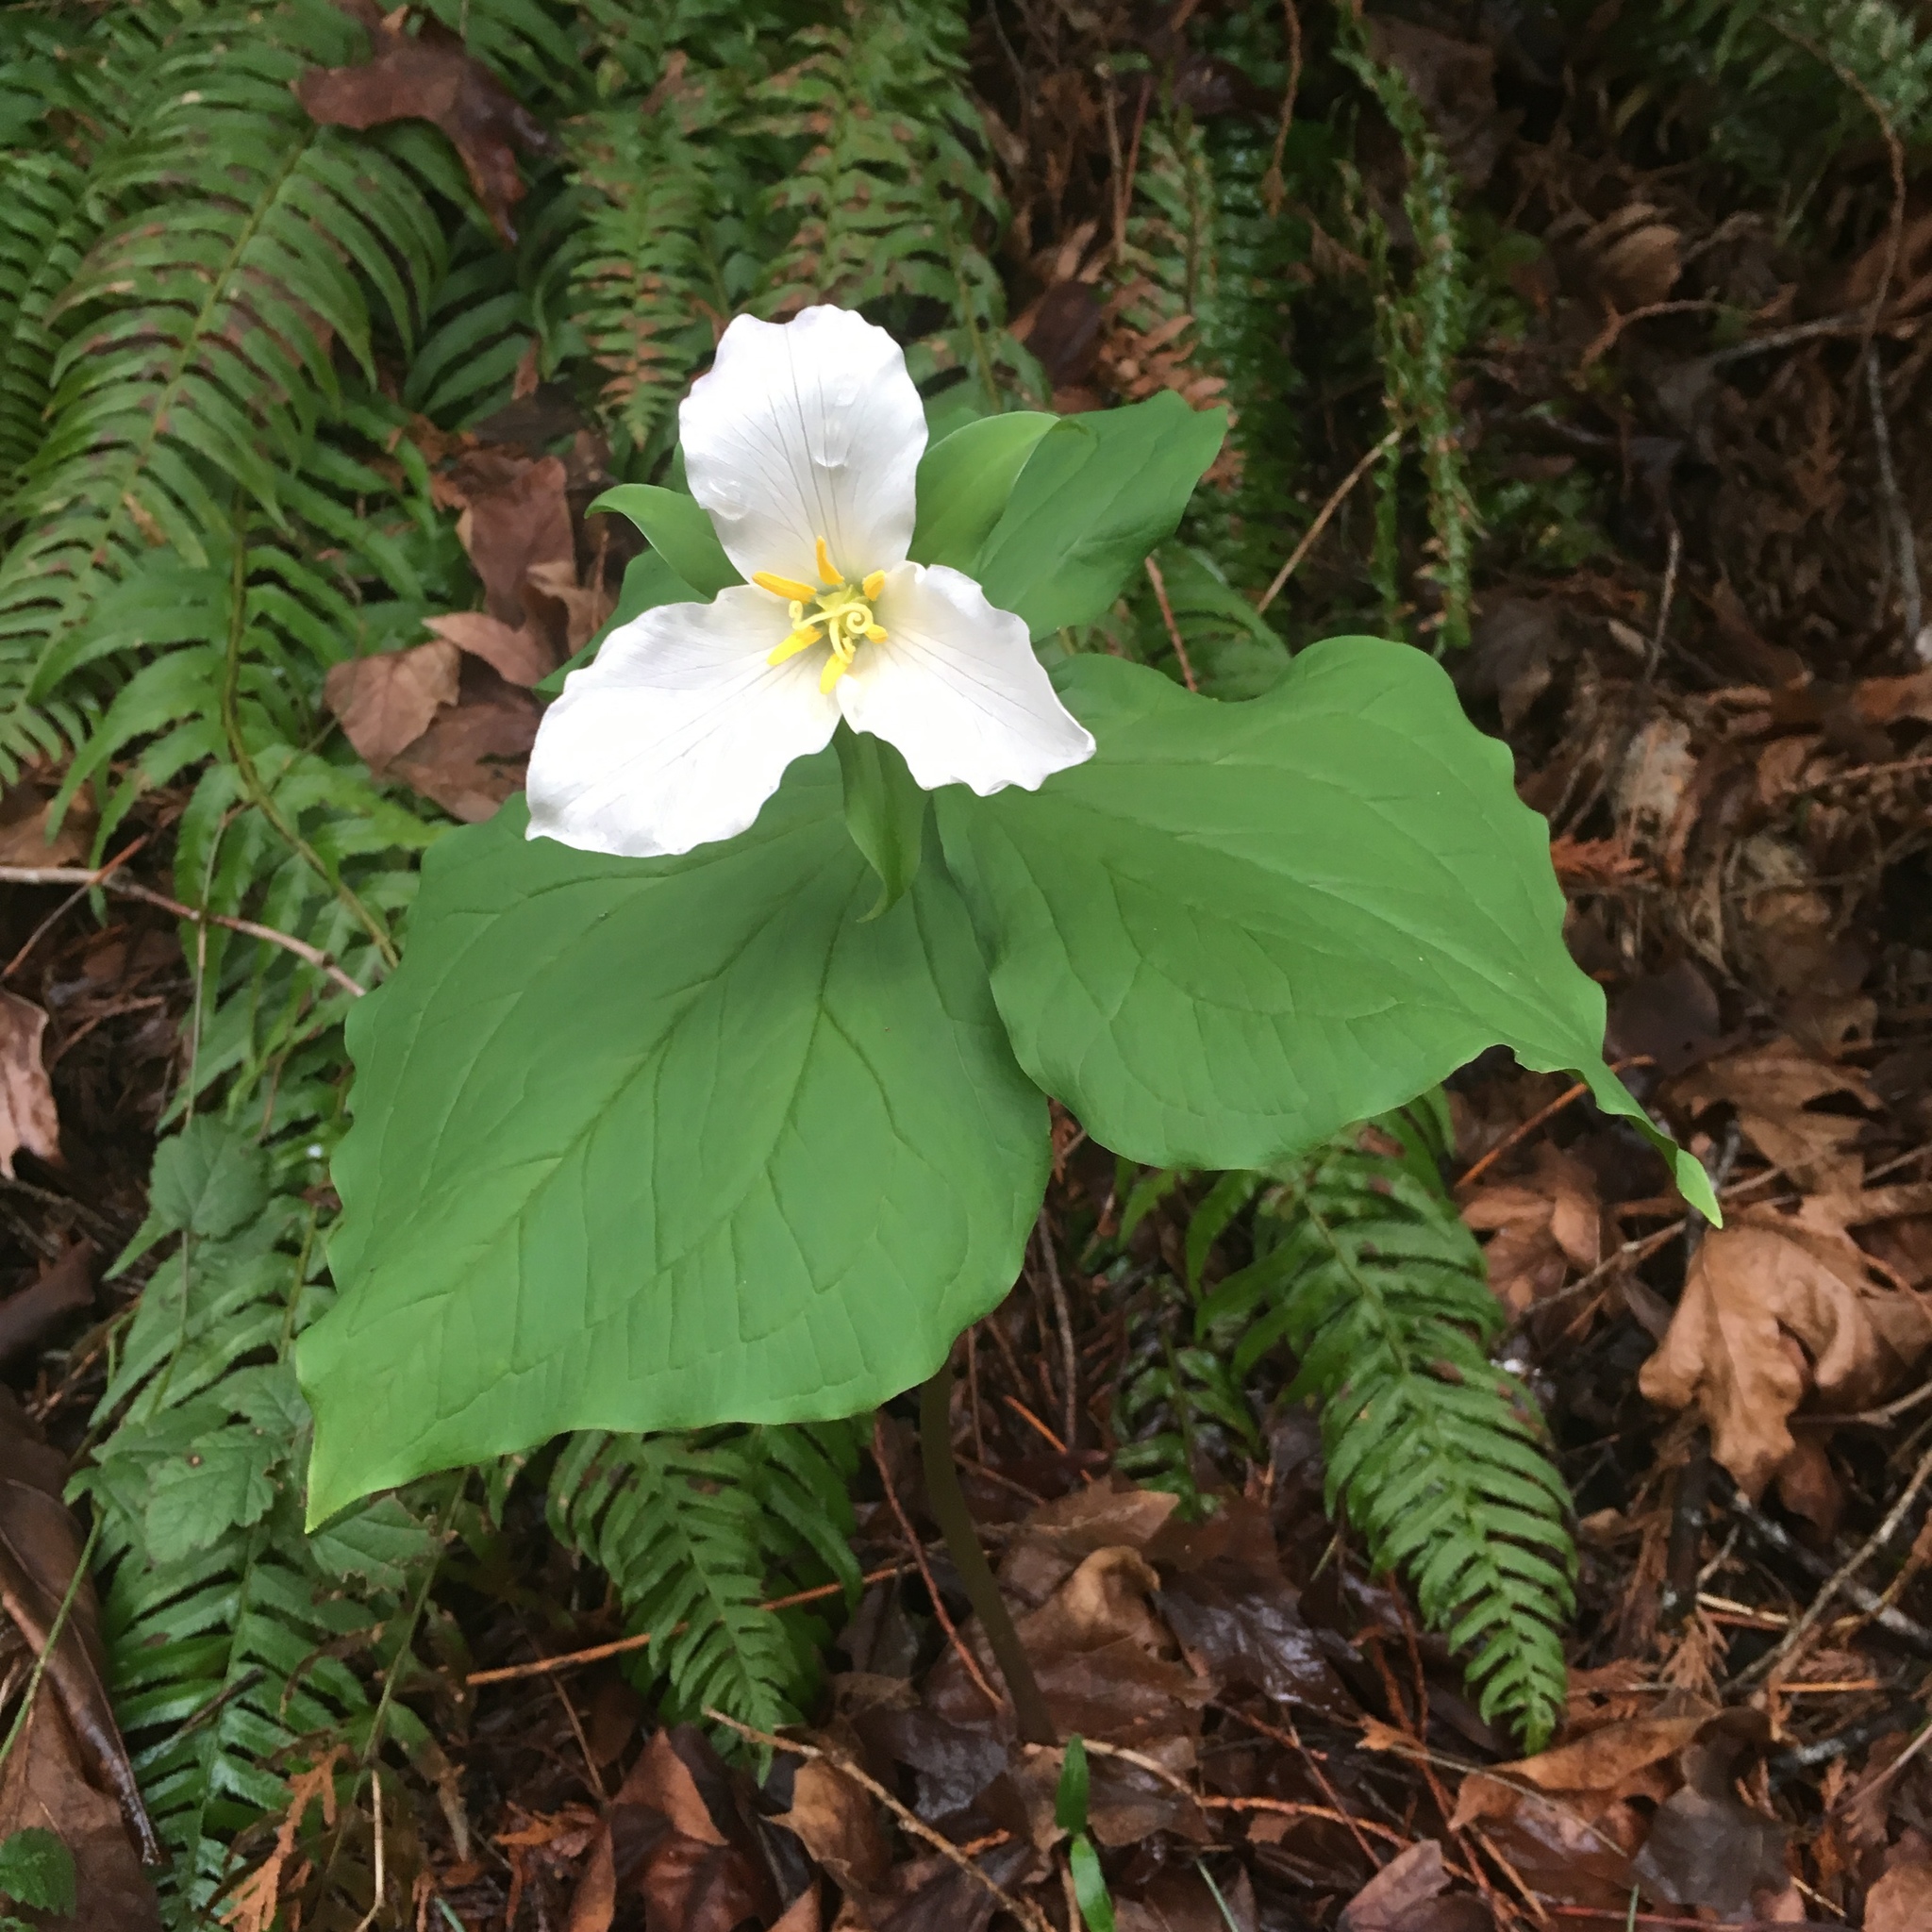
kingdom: Plantae
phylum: Tracheophyta
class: Liliopsida
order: Liliales
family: Melanthiaceae
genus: Trillium
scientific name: Trillium ovatum
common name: Pacific trillium
